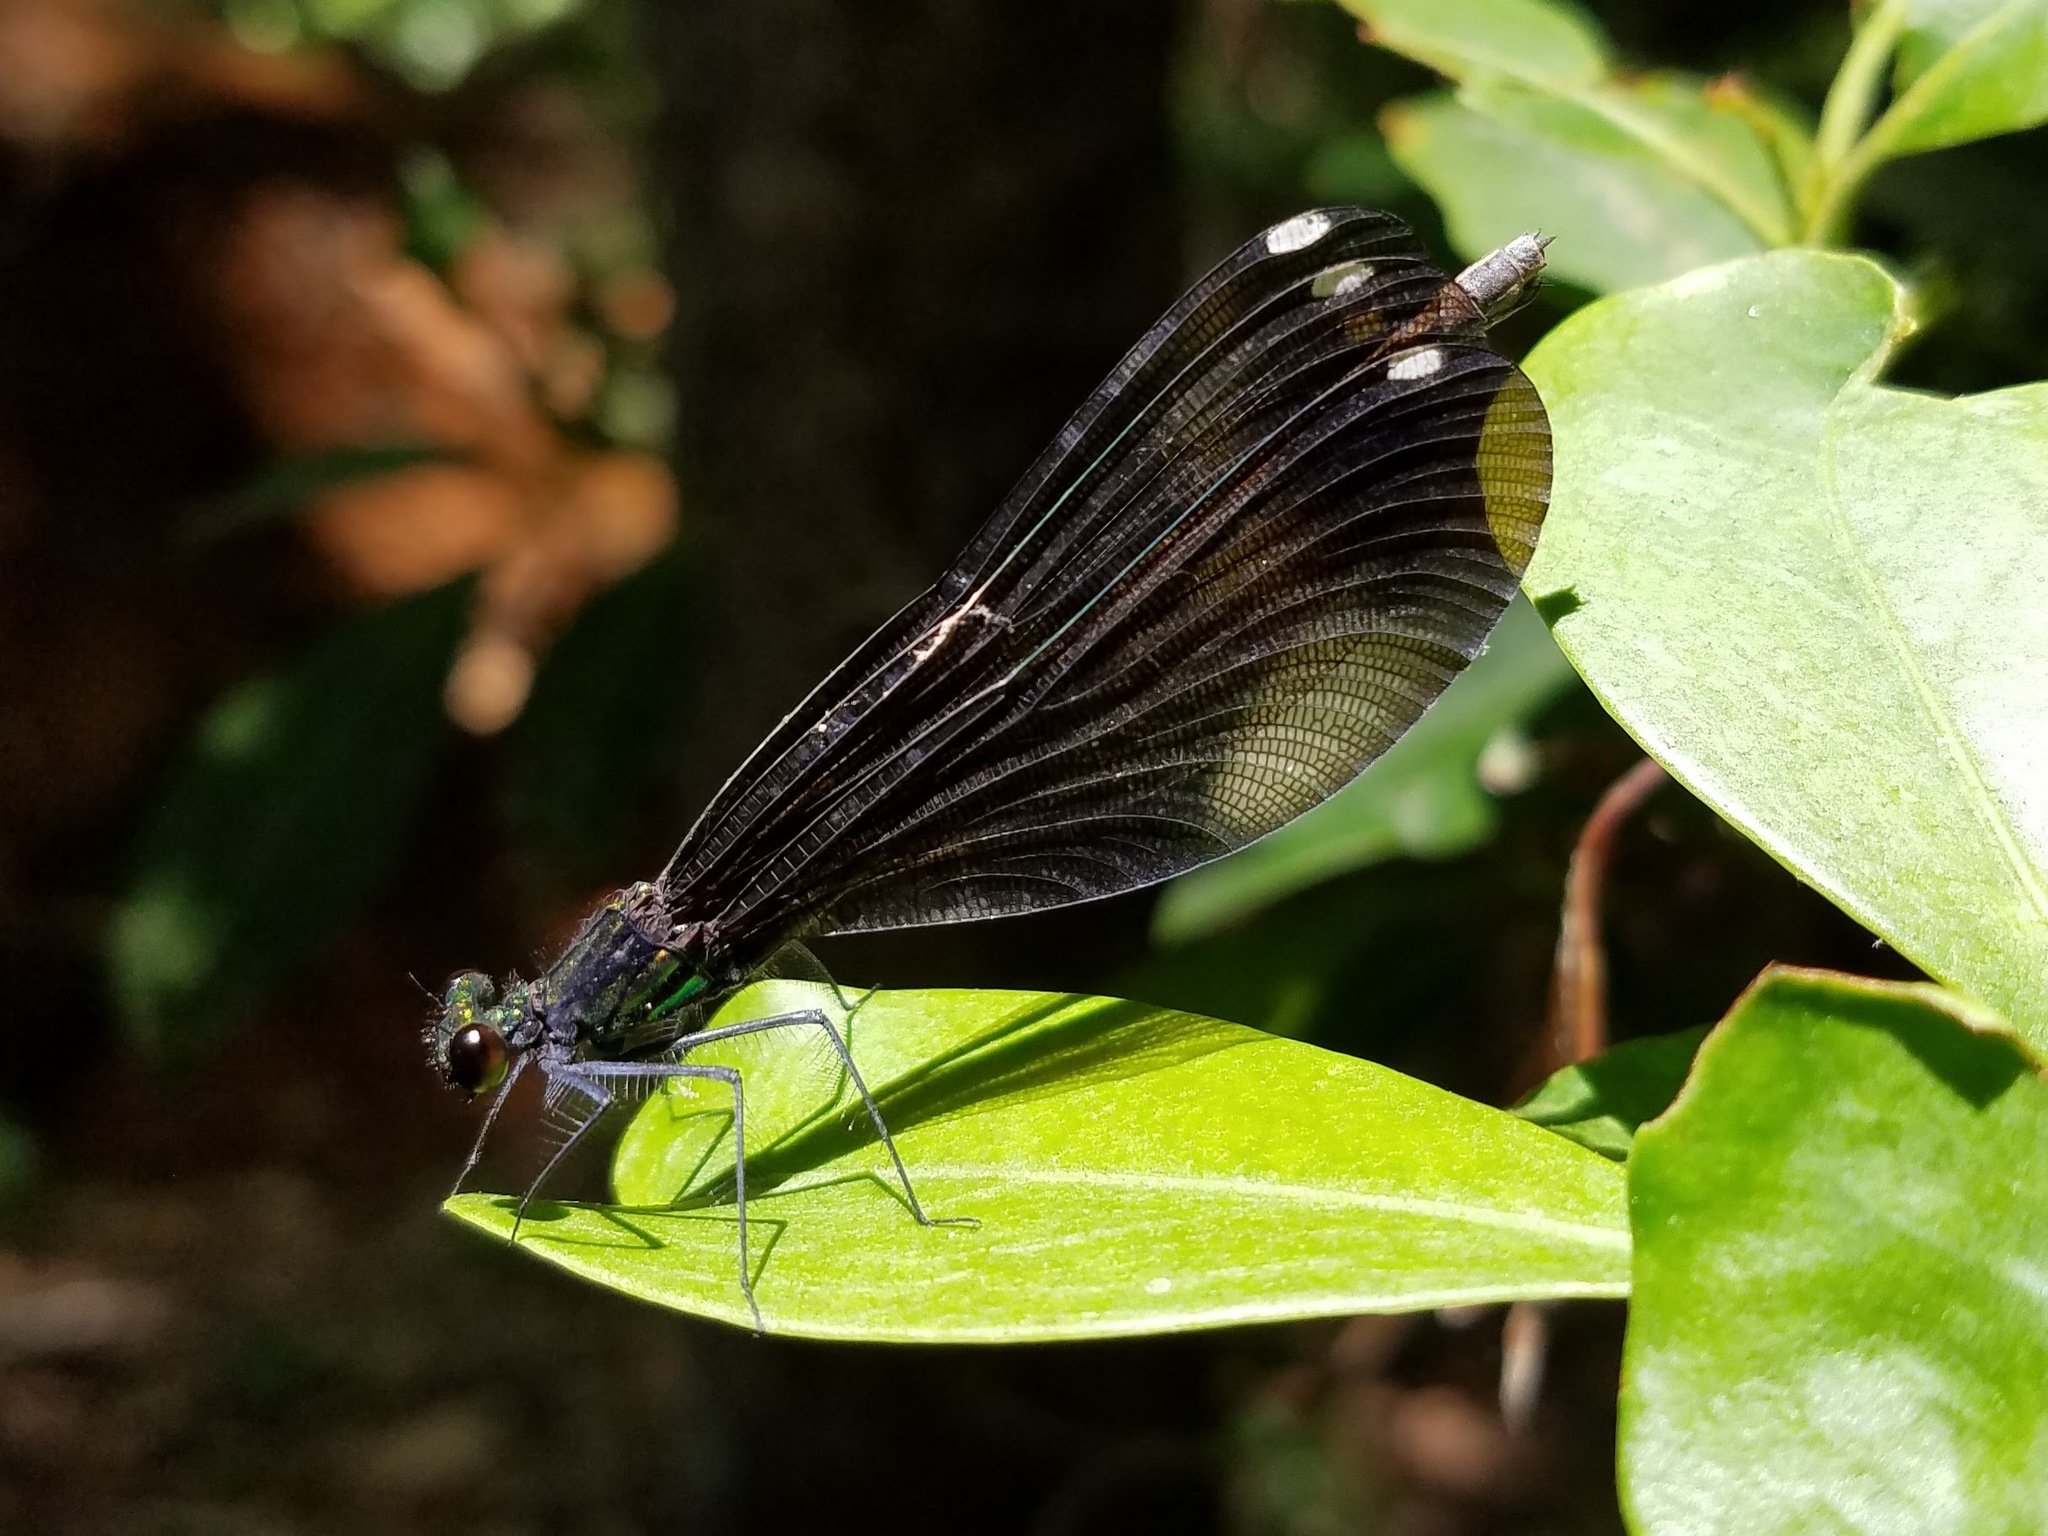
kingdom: Animalia
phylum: Arthropoda
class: Insecta
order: Odonata
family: Calopterygidae
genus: Calopteryx
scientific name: Calopteryx maculata
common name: Ebony jewelwing
